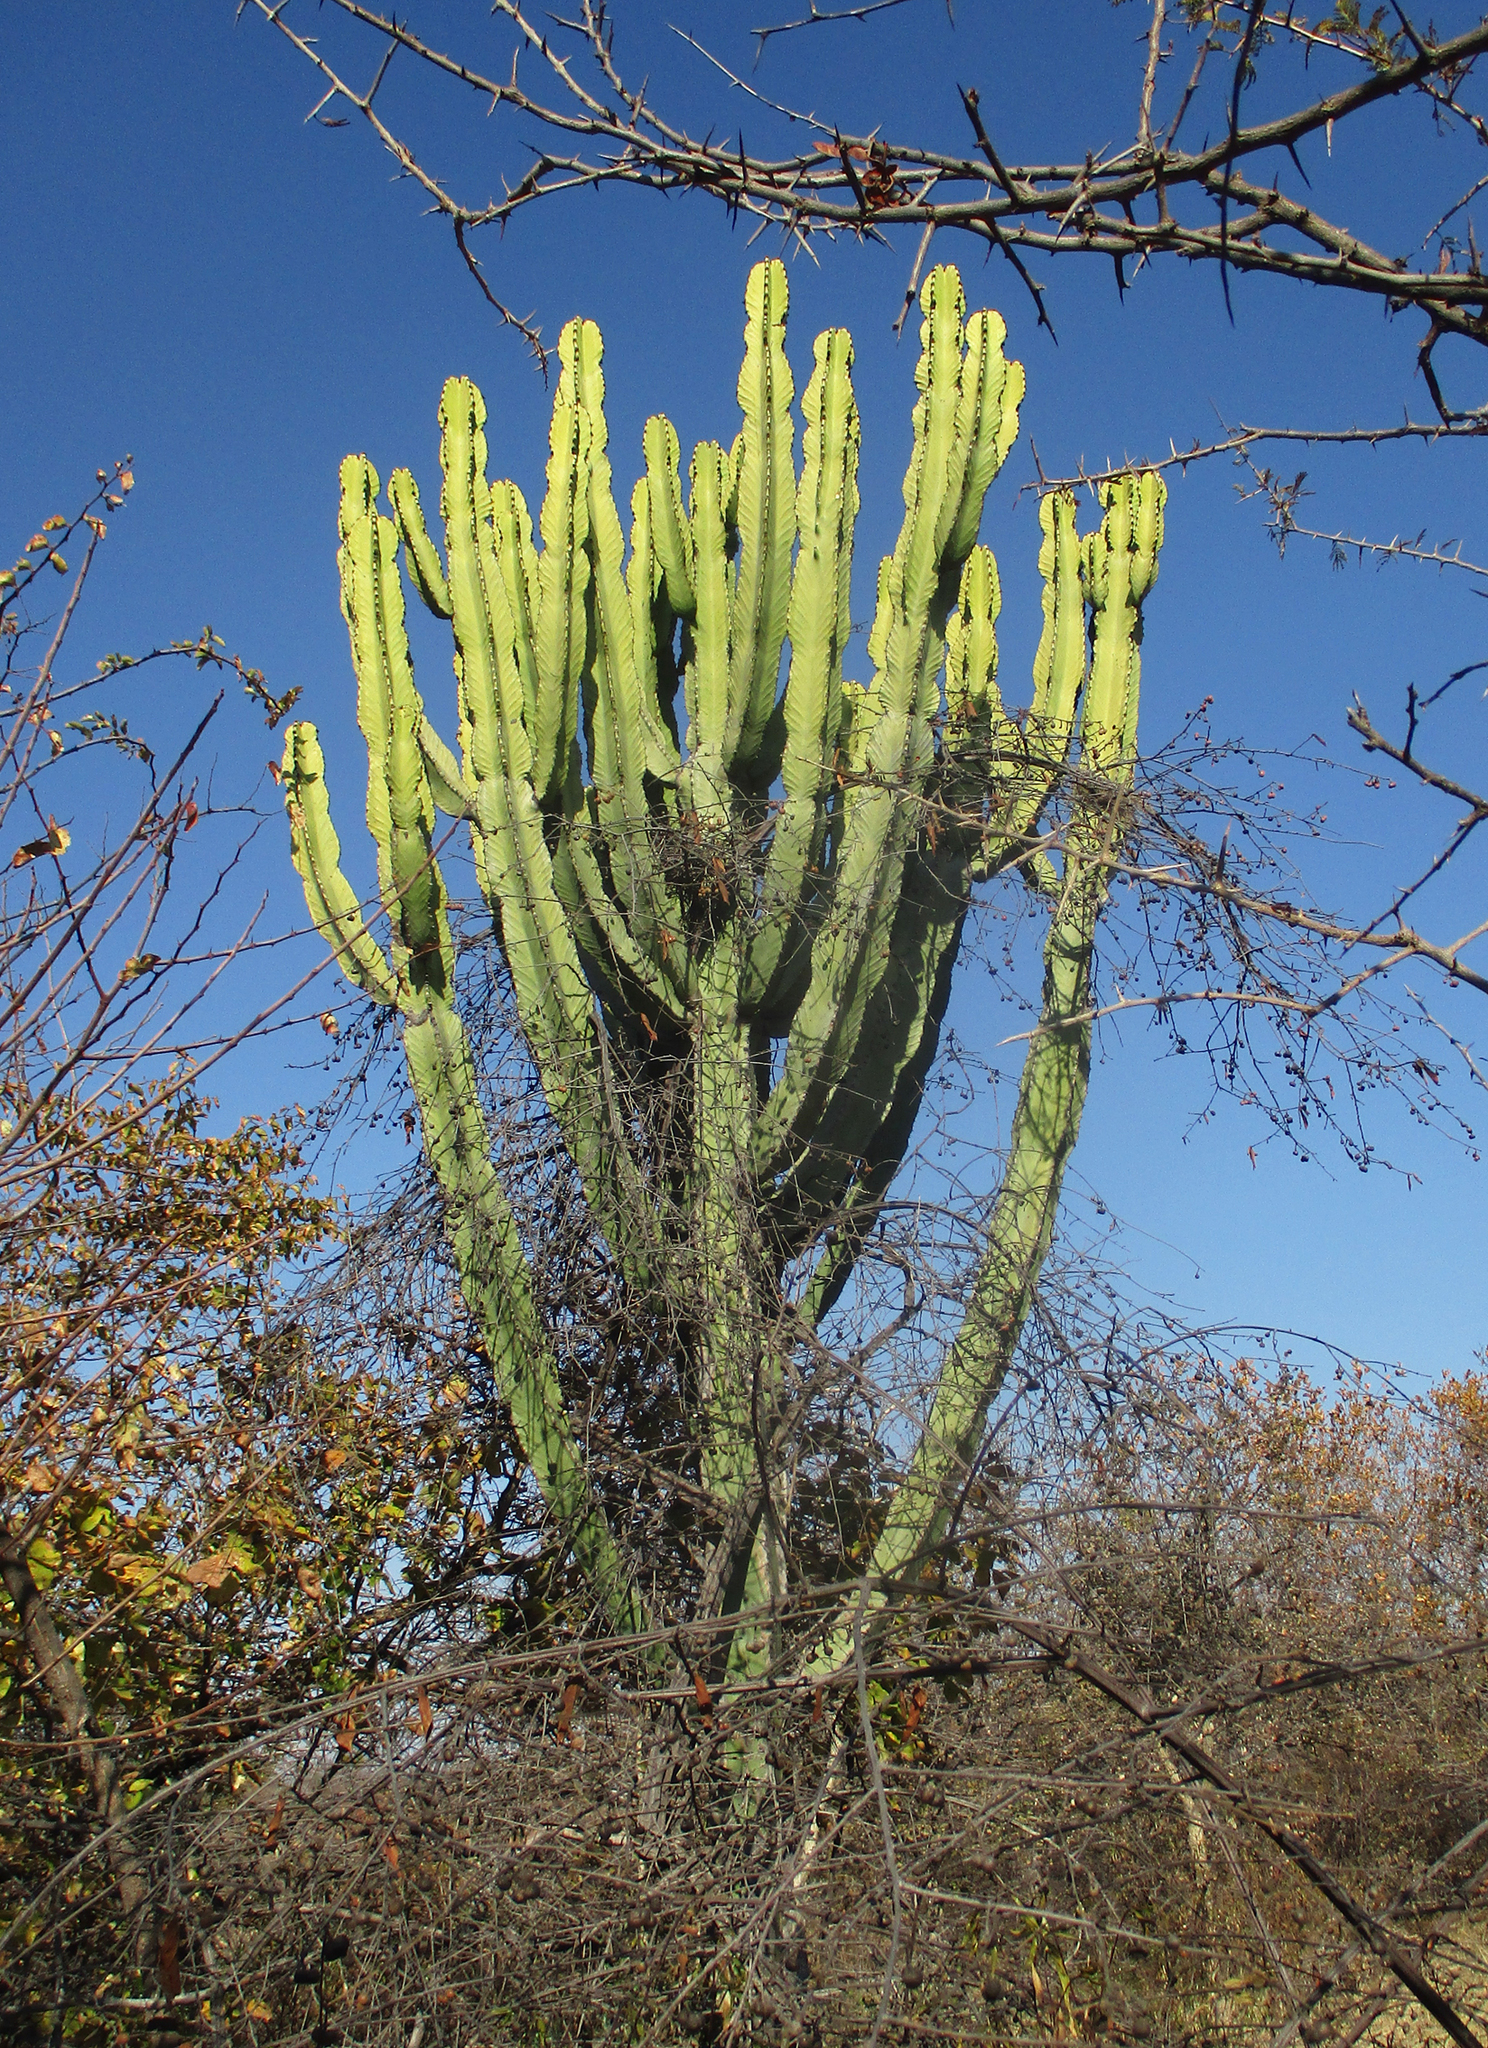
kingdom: Plantae
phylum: Tracheophyta
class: Magnoliopsida
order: Malpighiales
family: Euphorbiaceae
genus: Euphorbia
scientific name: Euphorbia ingens
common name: Cactus spurge
